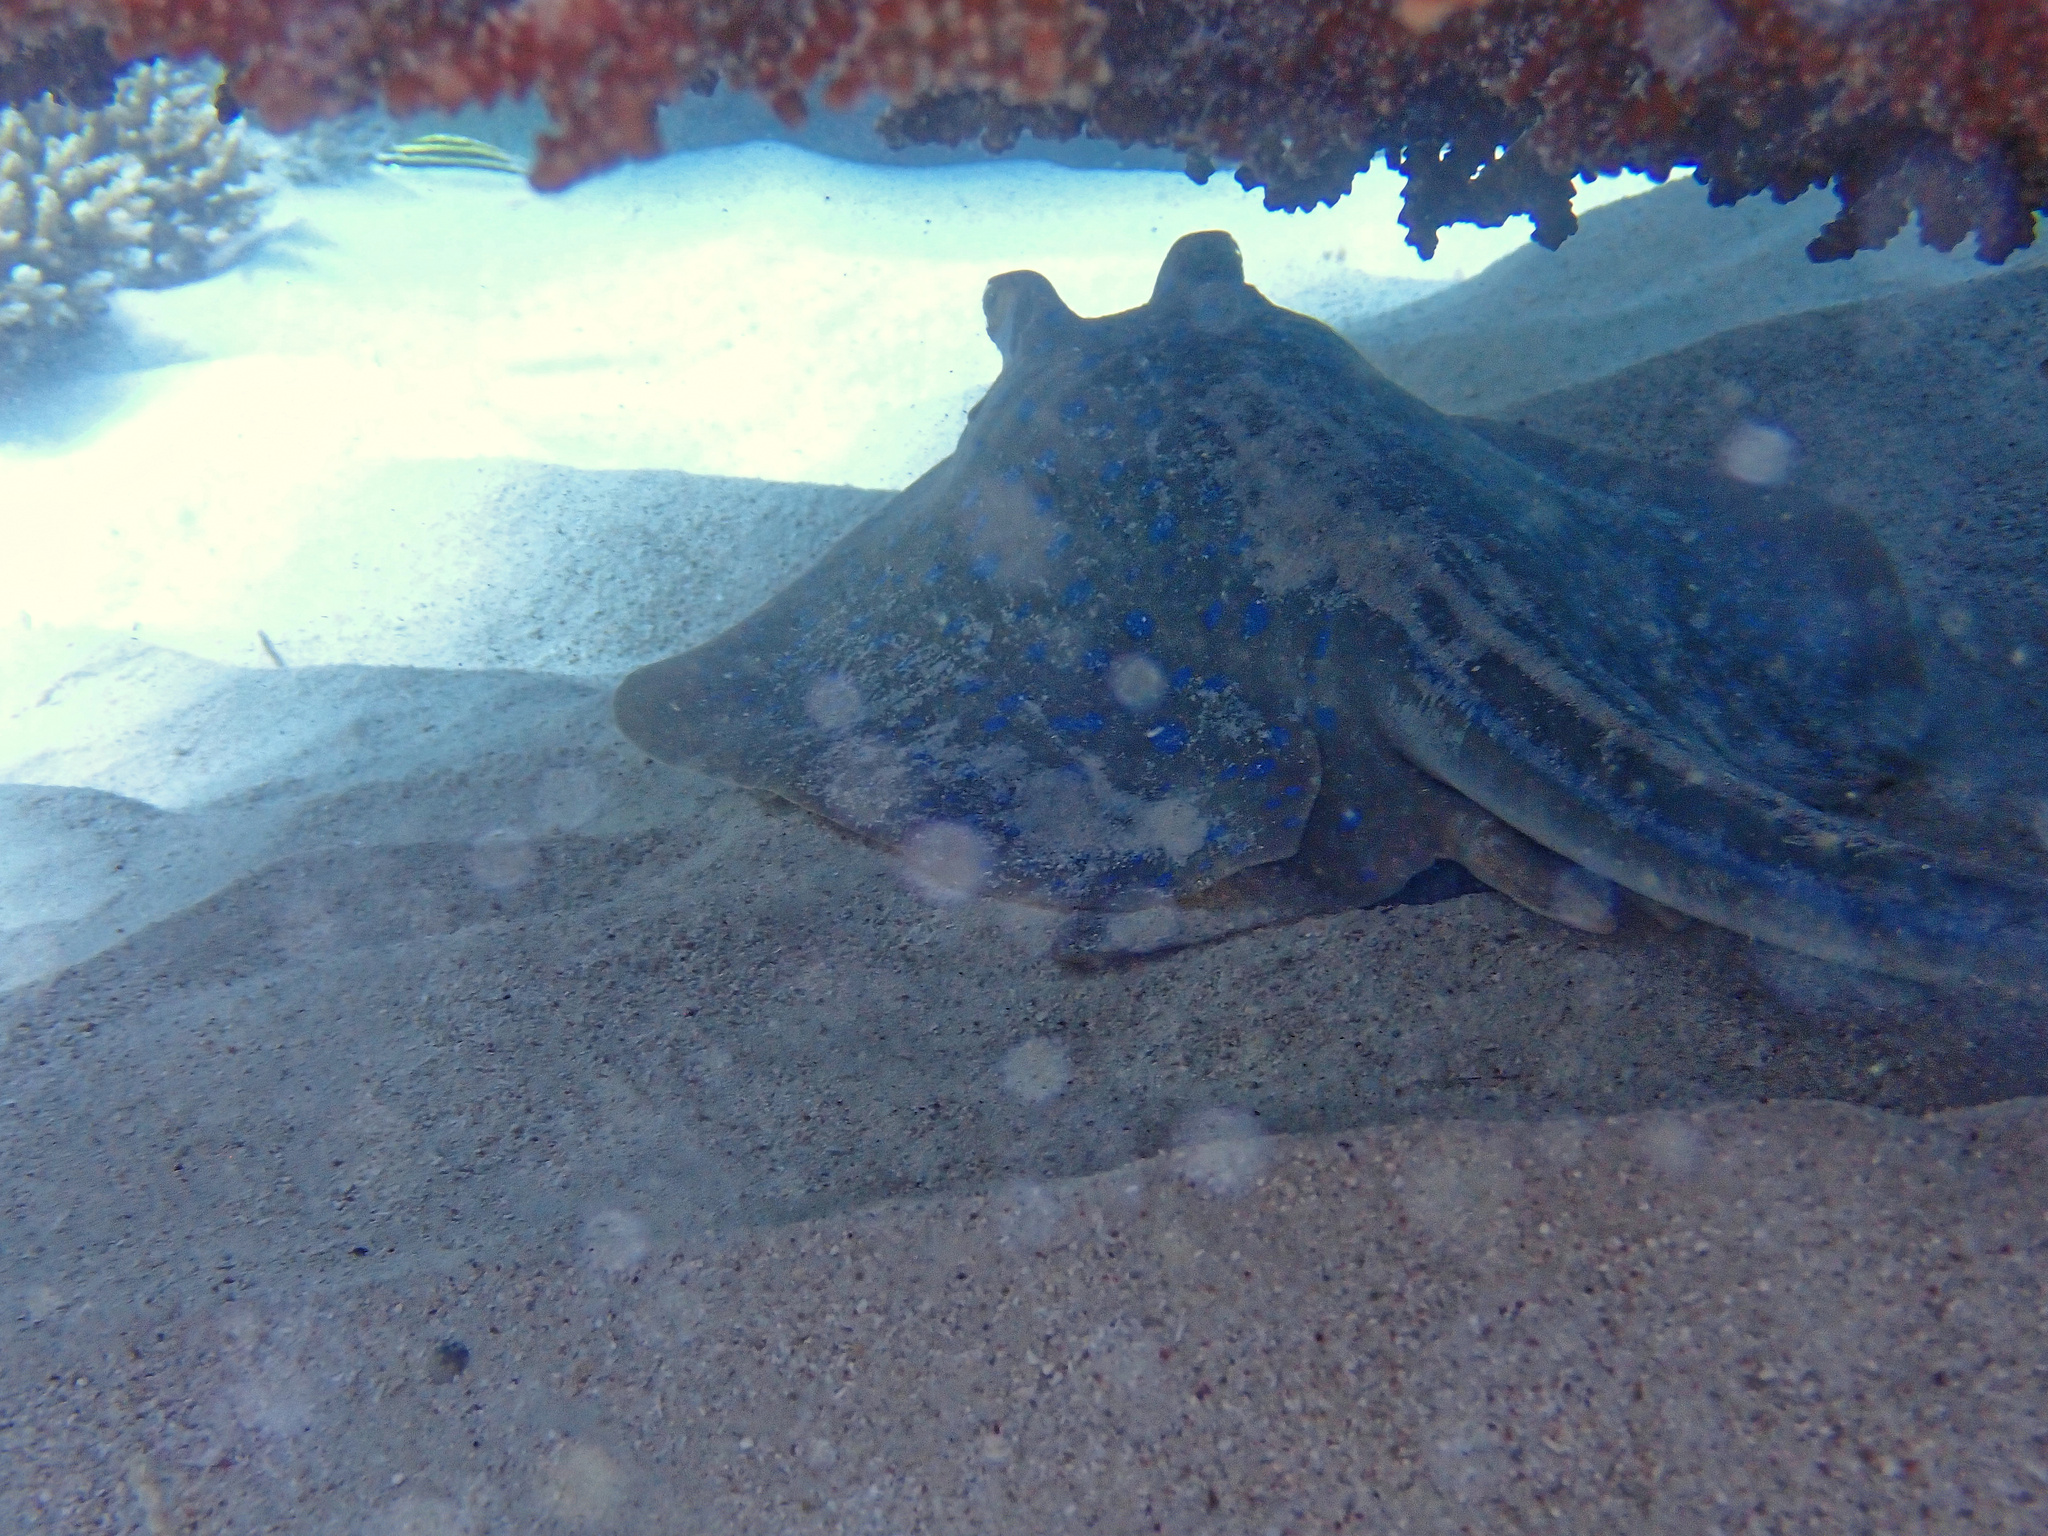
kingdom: Animalia
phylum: Chordata
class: Elasmobranchii
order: Myliobatiformes
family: Dasyatidae
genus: Taeniura
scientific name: Taeniura lymma
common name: Bluespotted ribbontail ray
